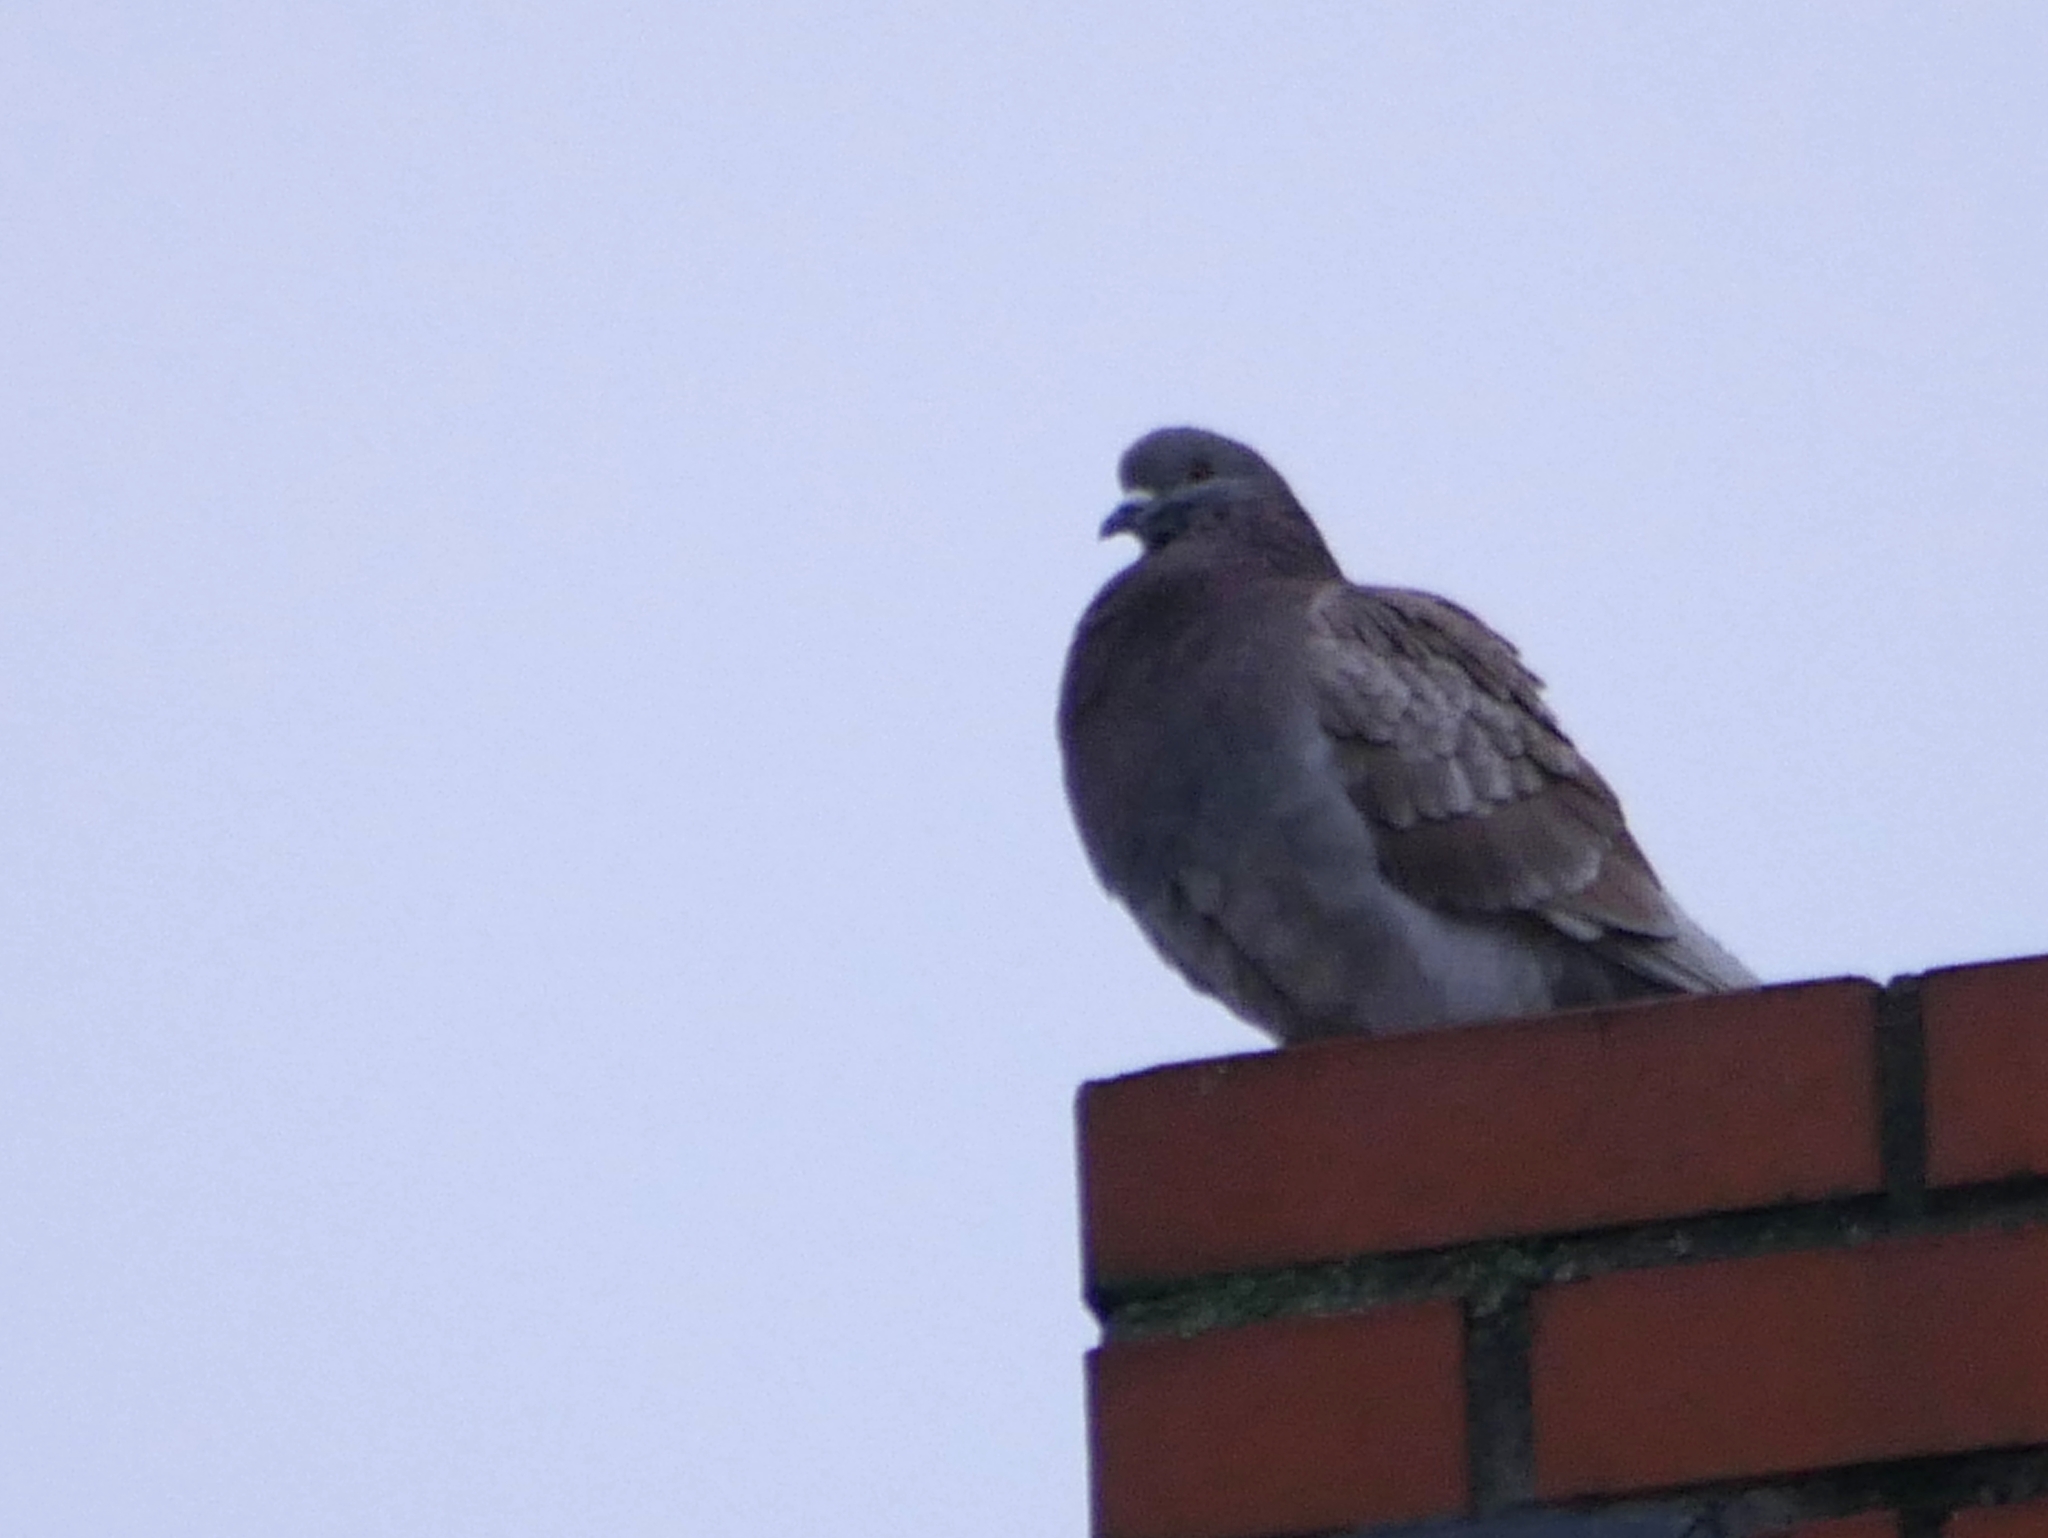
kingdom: Animalia
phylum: Chordata
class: Aves
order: Columbiformes
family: Columbidae
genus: Columba
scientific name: Columba livia
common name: Rock pigeon
